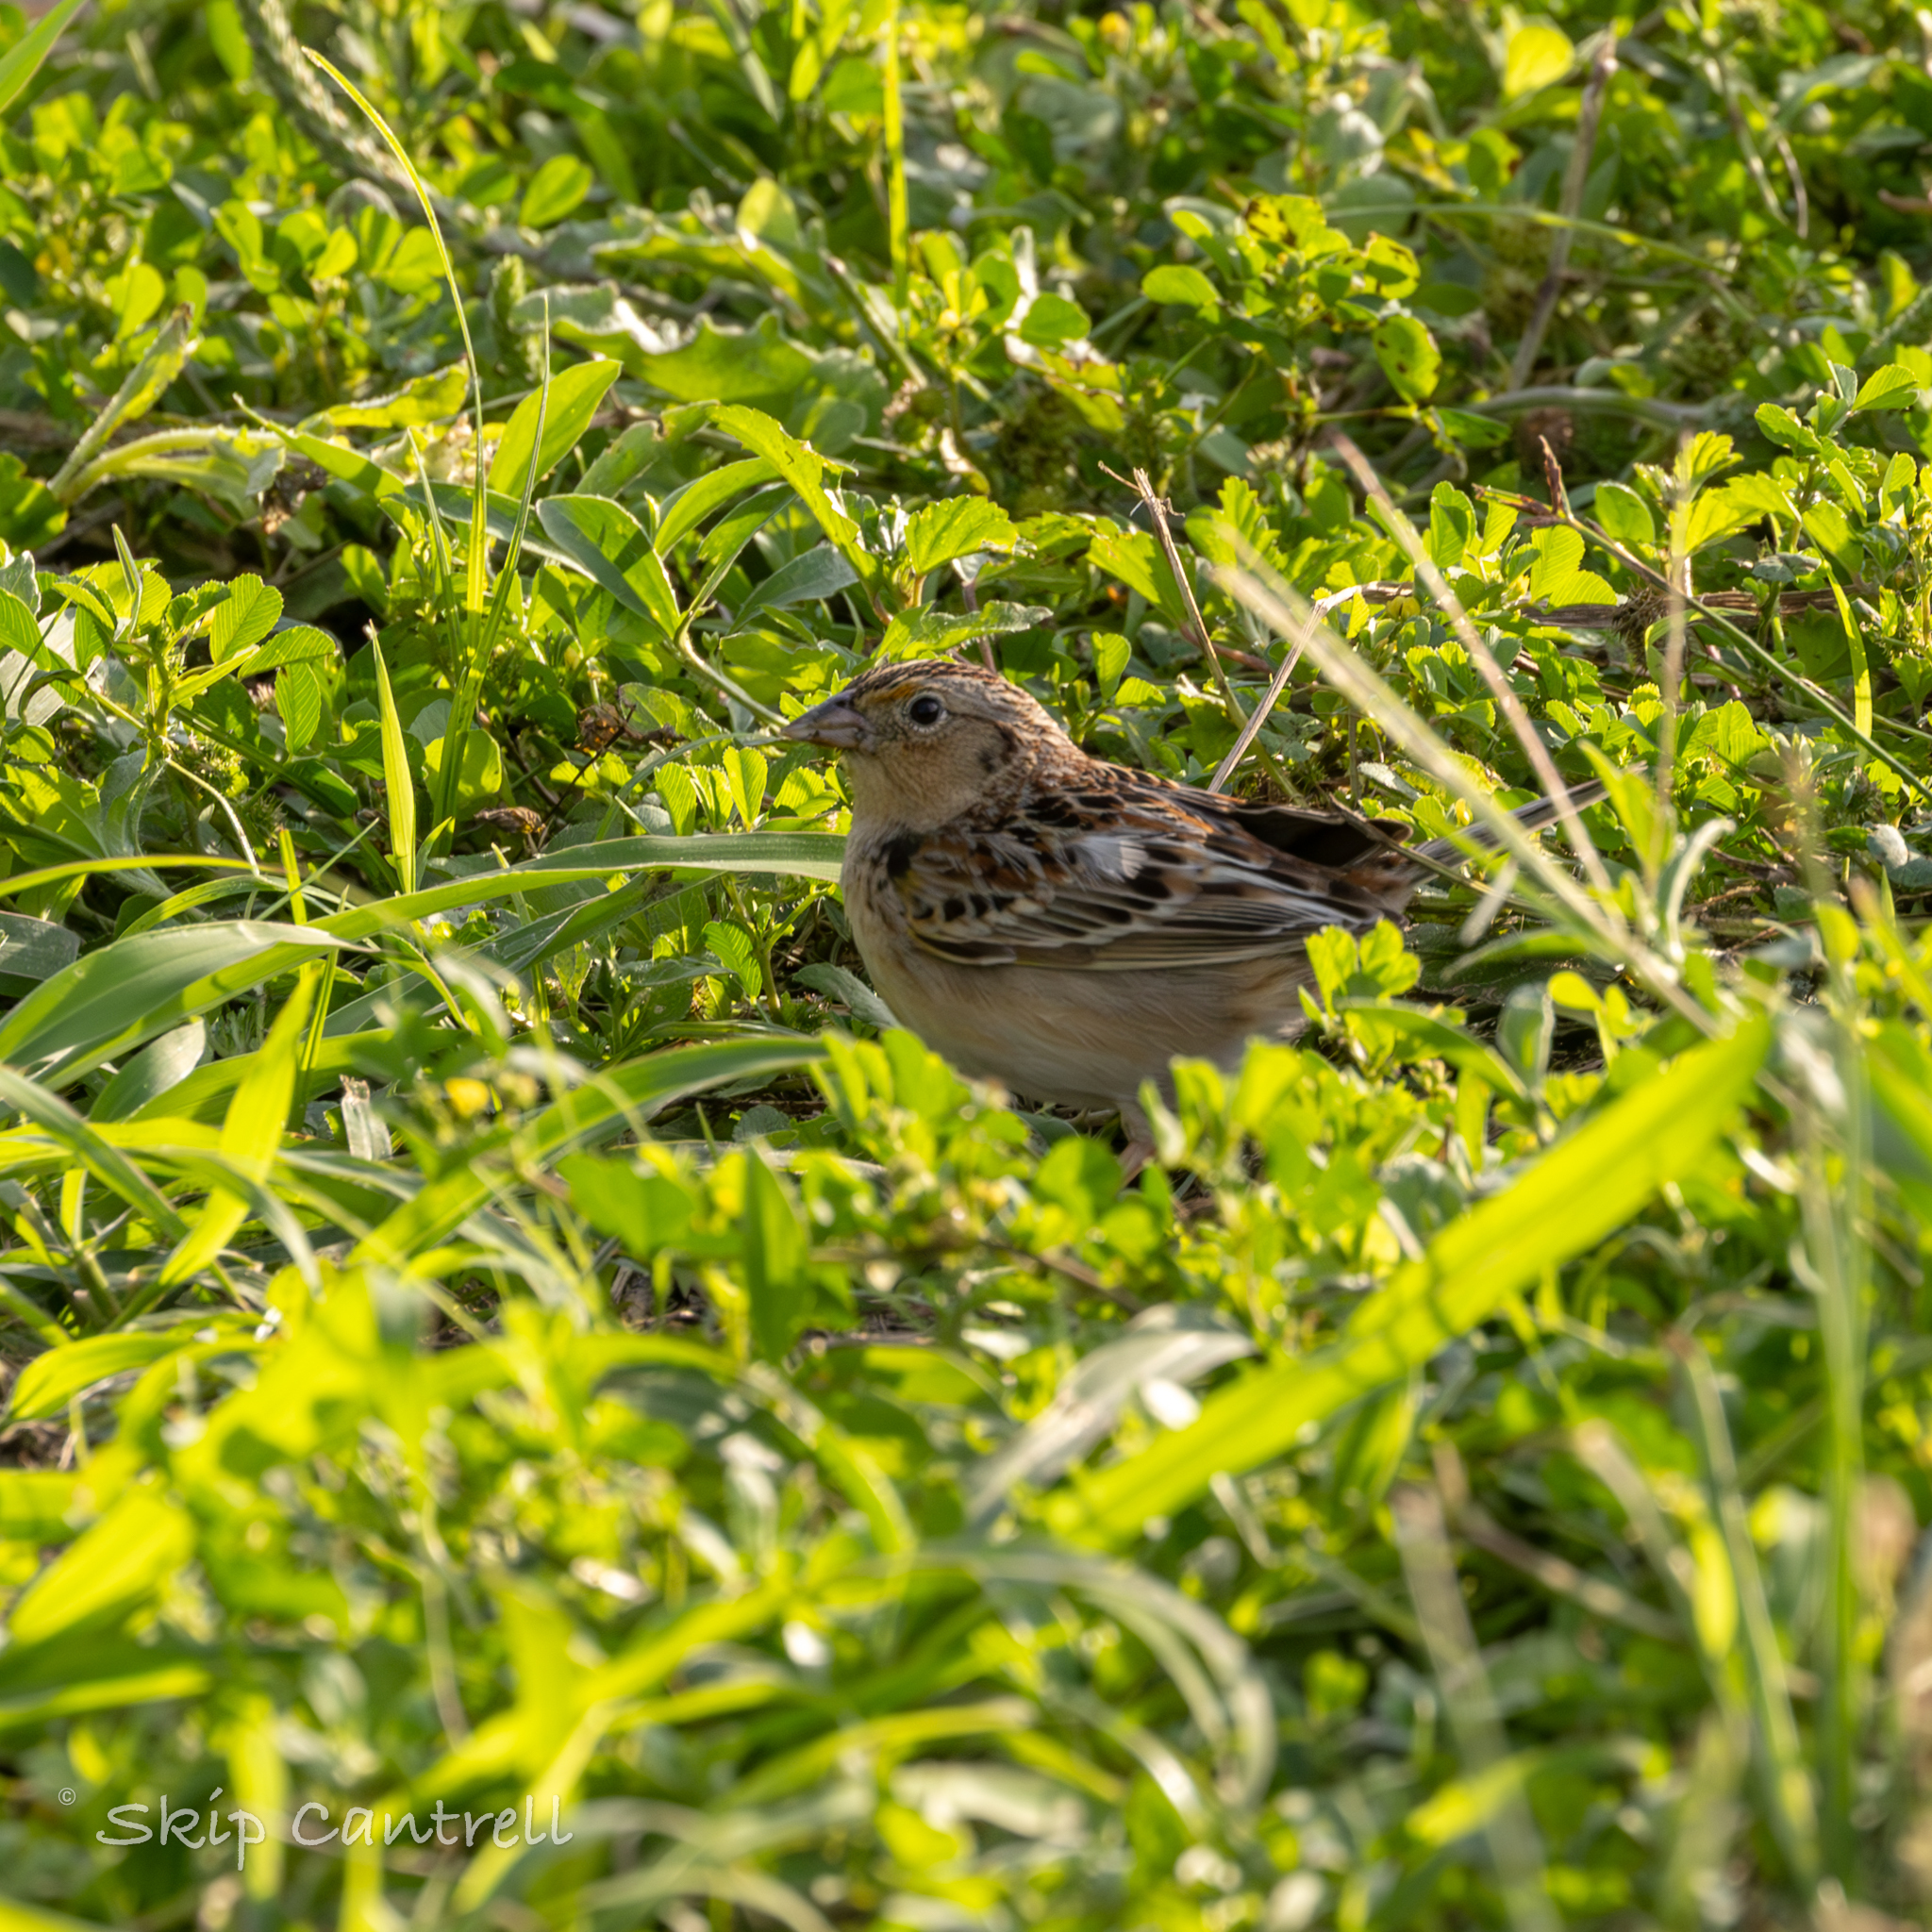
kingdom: Animalia
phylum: Chordata
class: Aves
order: Passeriformes
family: Passerellidae
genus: Ammodramus
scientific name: Ammodramus savannarum
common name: Grasshopper sparrow
